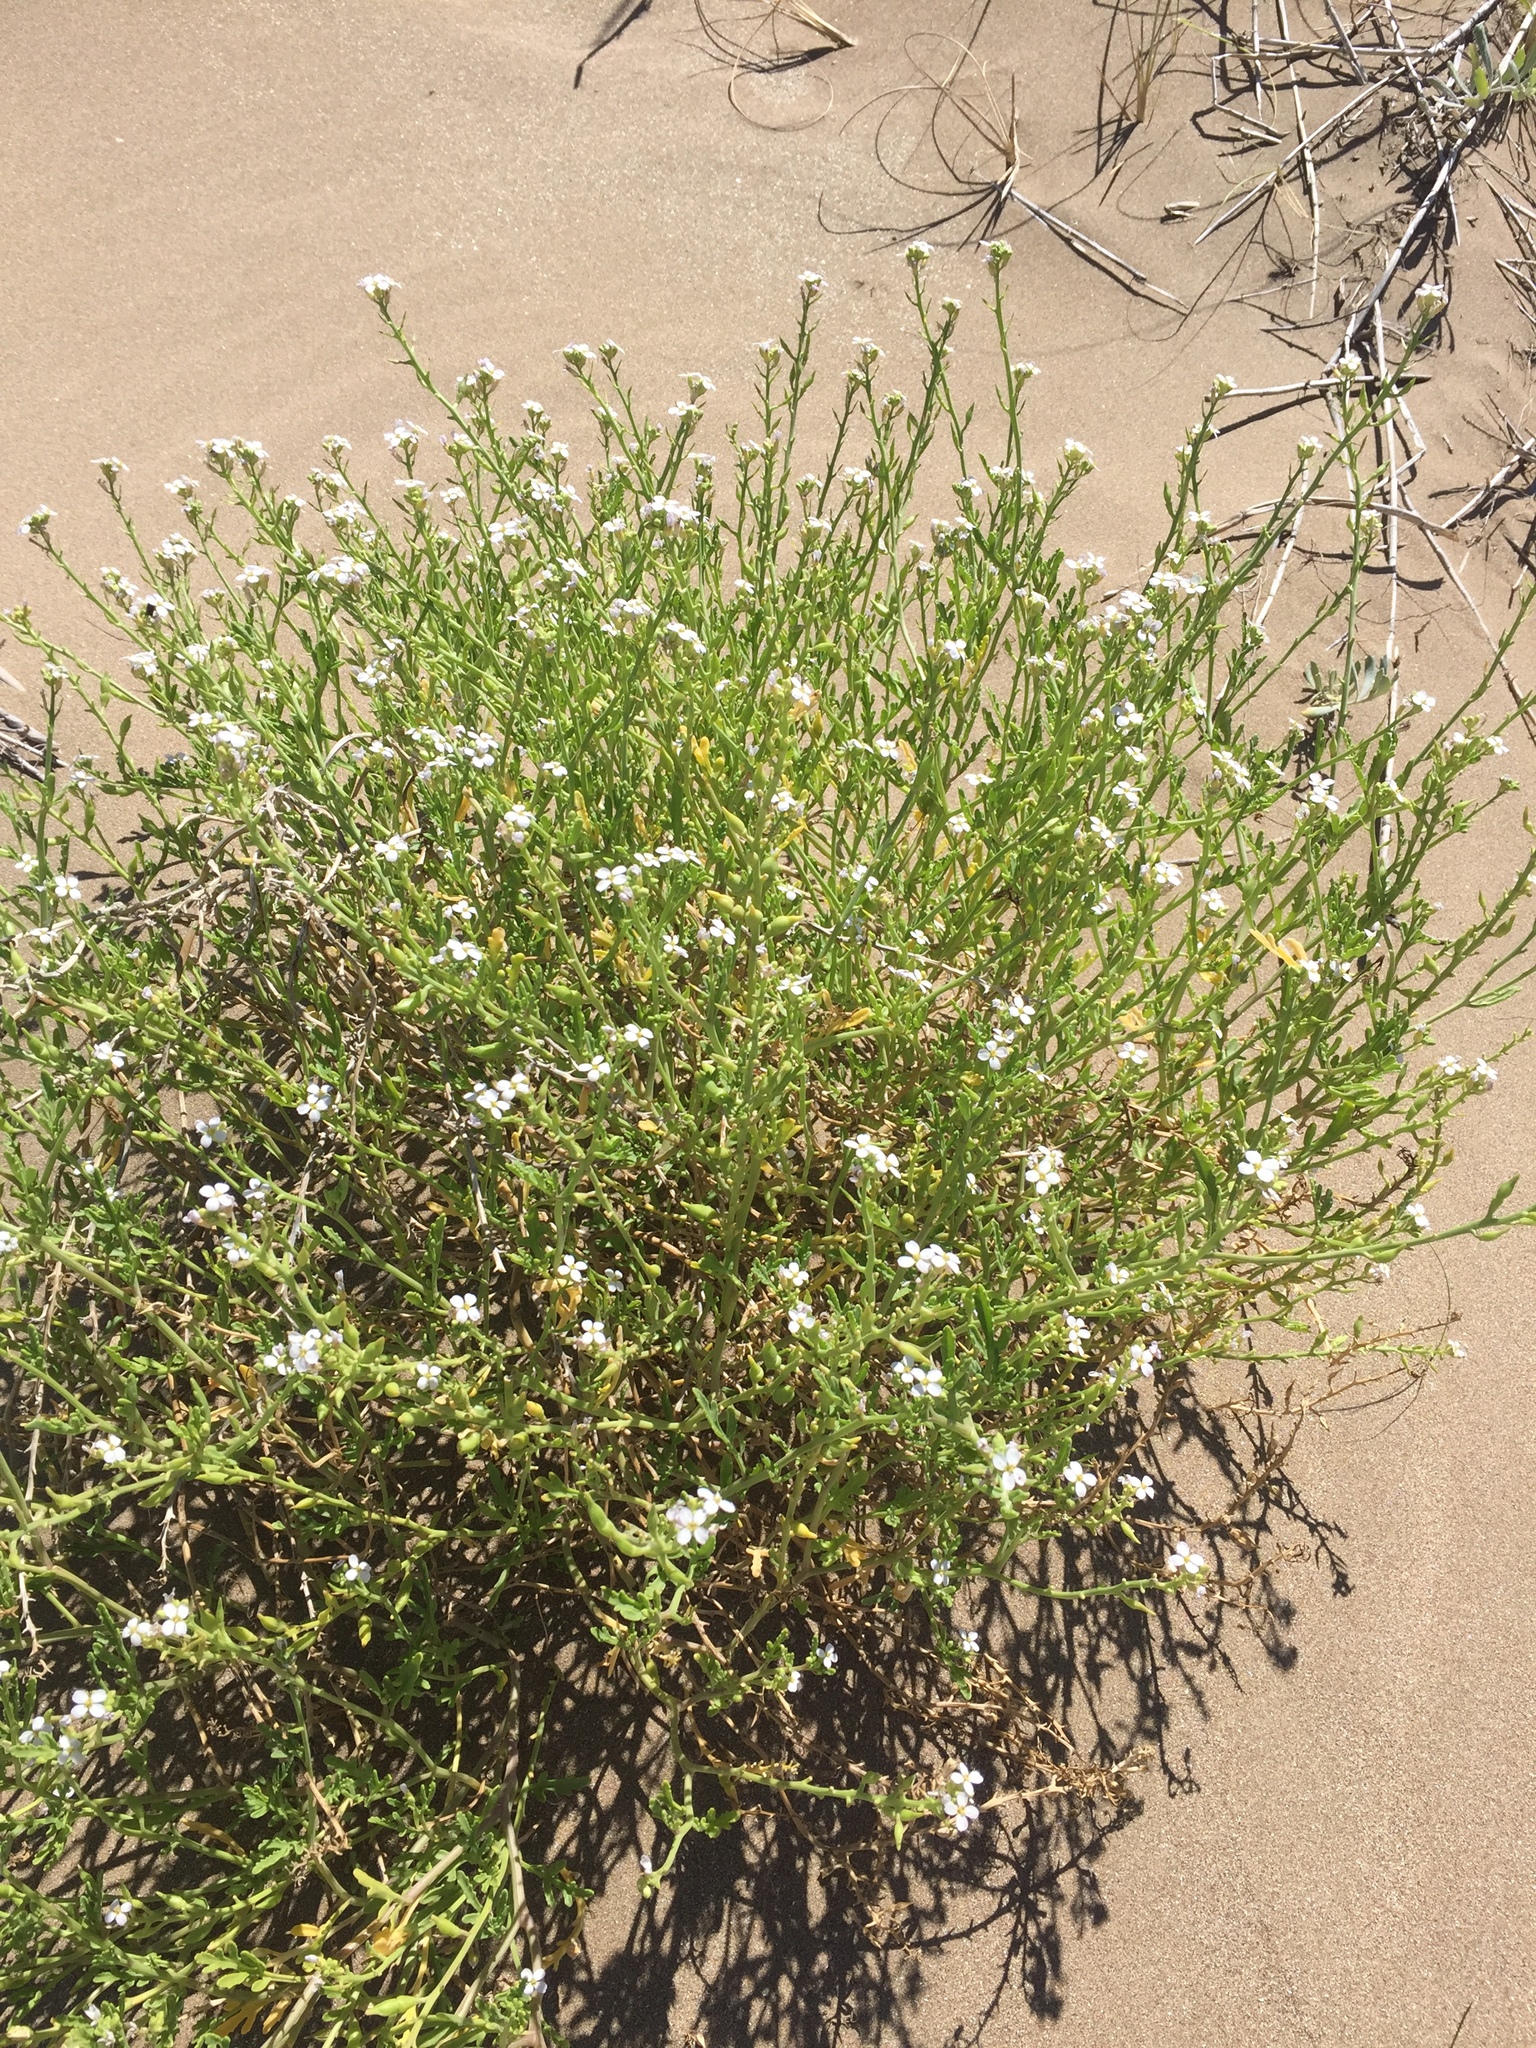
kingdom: Plantae
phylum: Tracheophyta
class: Magnoliopsida
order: Brassicales
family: Brassicaceae
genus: Cakile
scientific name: Cakile maritima
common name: Sea rocket
